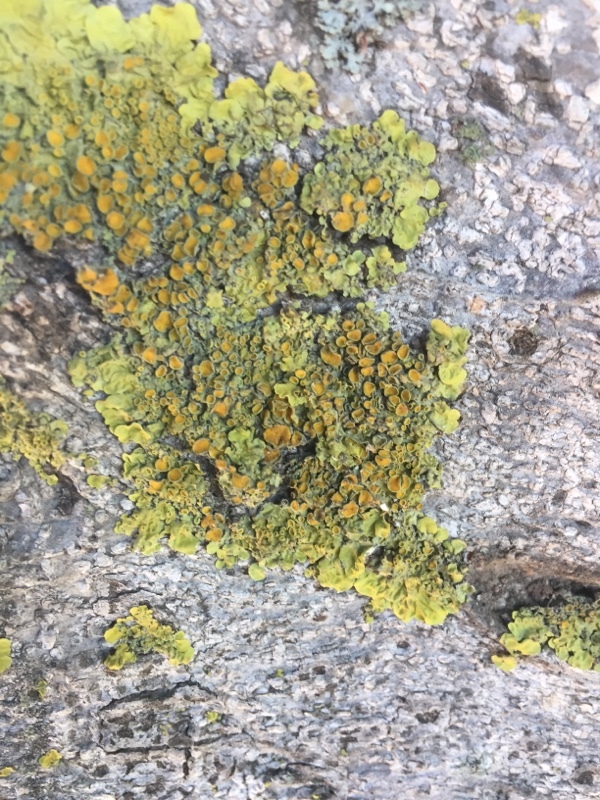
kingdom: Fungi
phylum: Ascomycota
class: Lecanoromycetes
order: Teloschistales
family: Teloschistaceae
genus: Xanthoria
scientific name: Xanthoria parietina
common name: Common orange lichen
